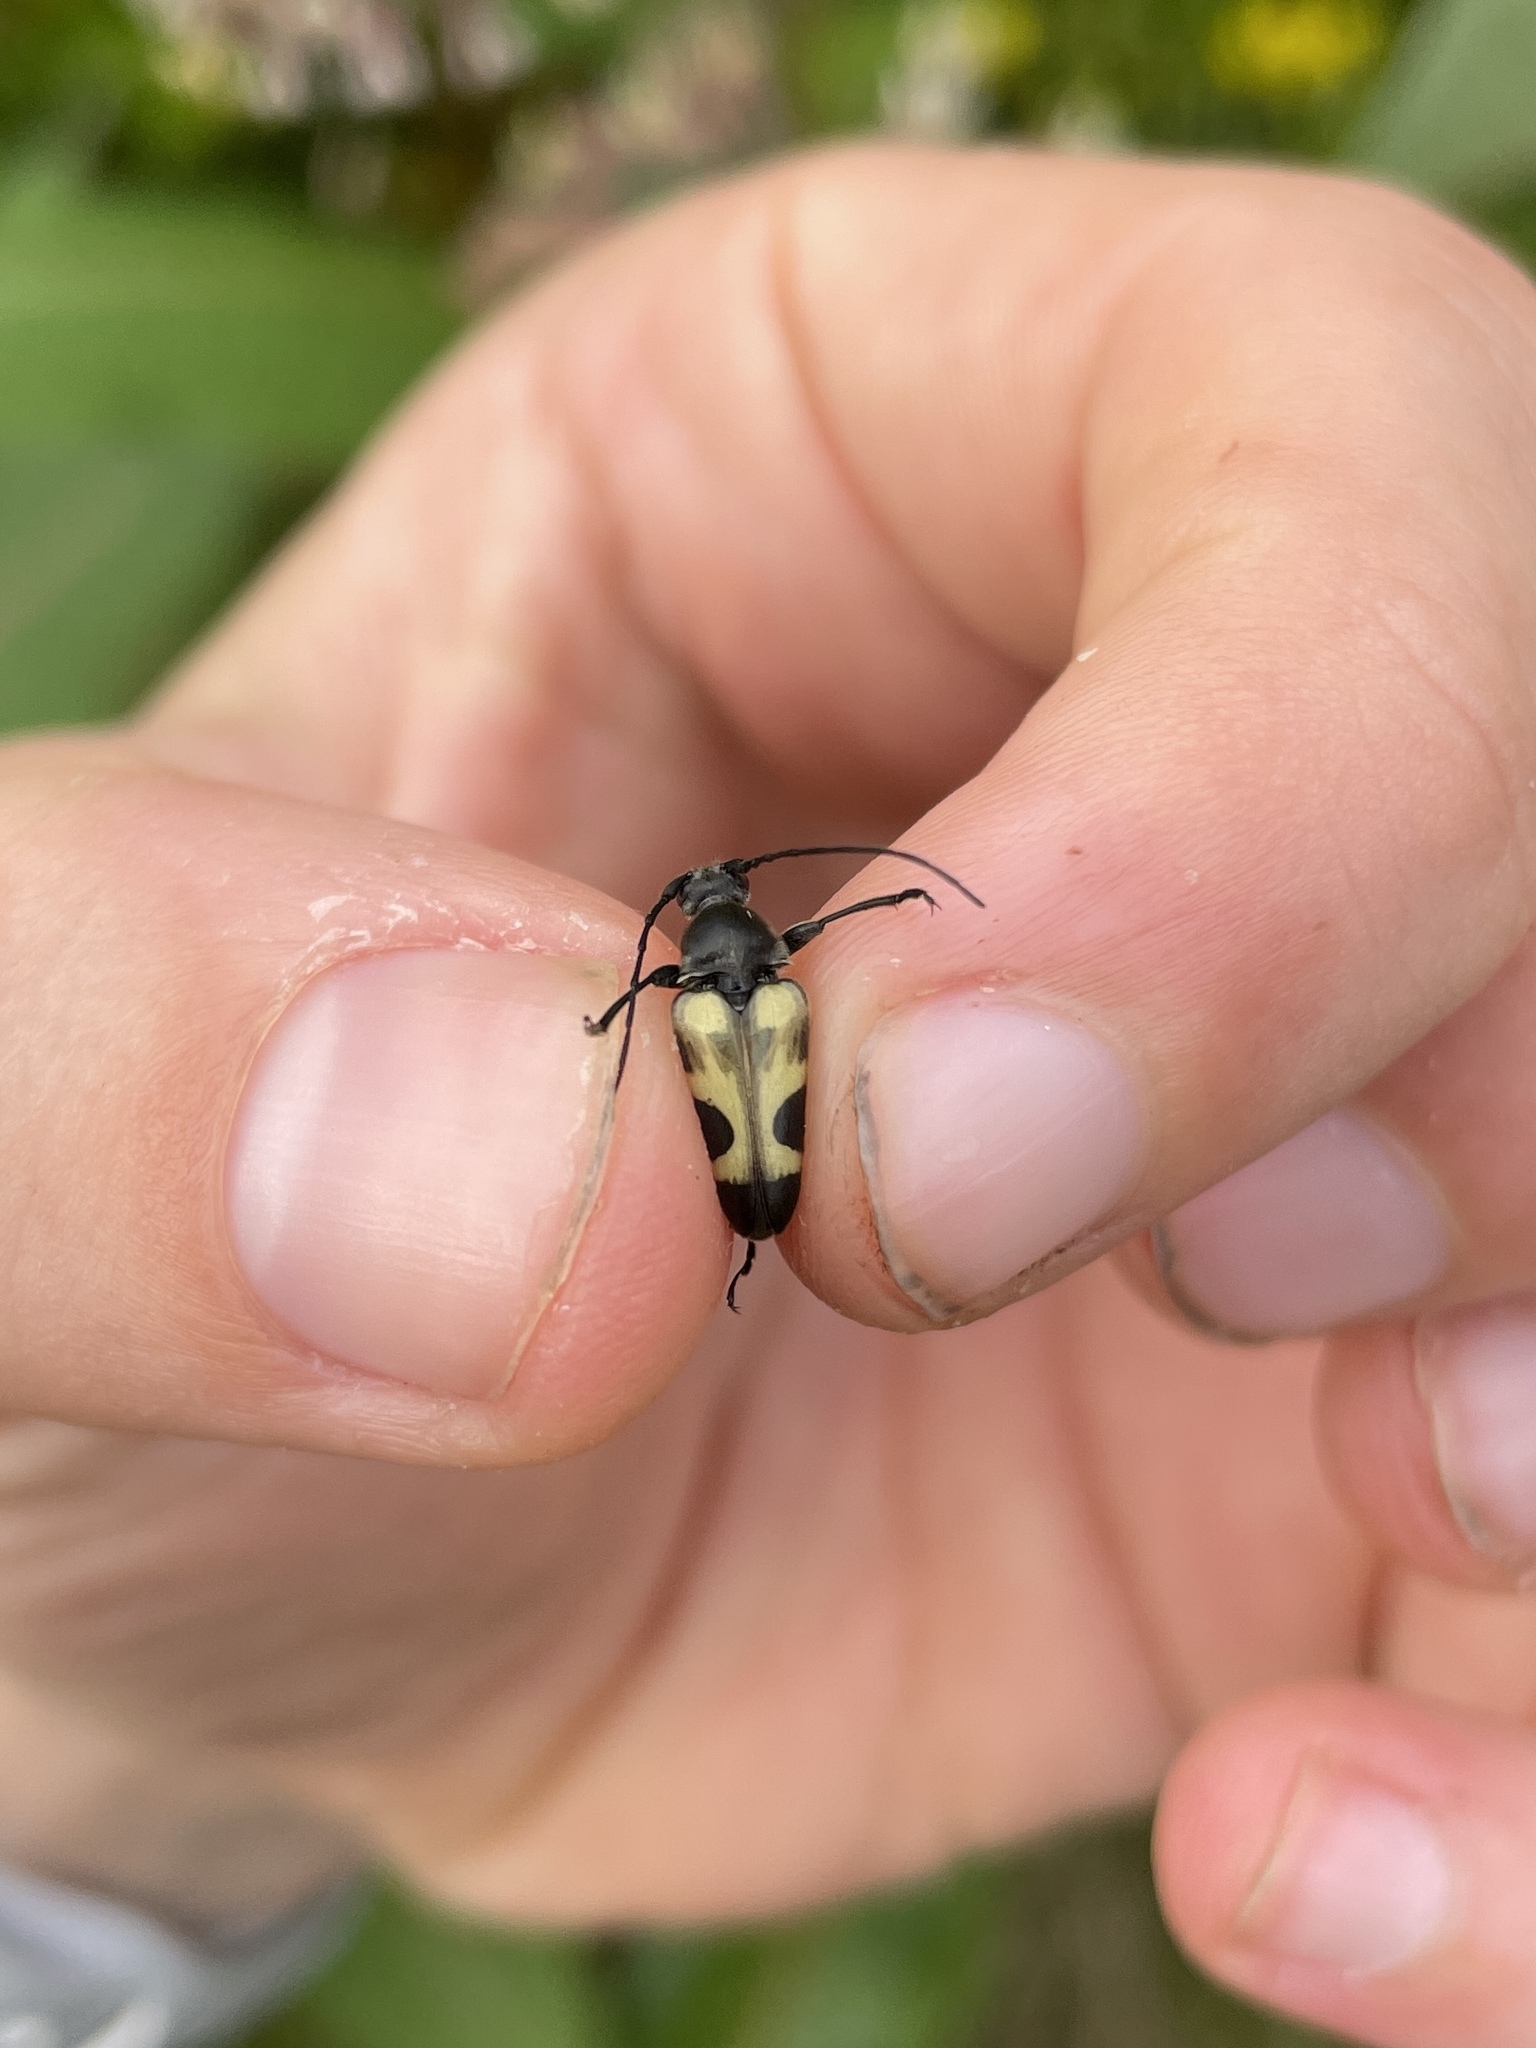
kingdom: Animalia
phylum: Arthropoda
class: Insecta
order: Coleoptera
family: Cerambycidae
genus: Judolia
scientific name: Judolia cordifera
